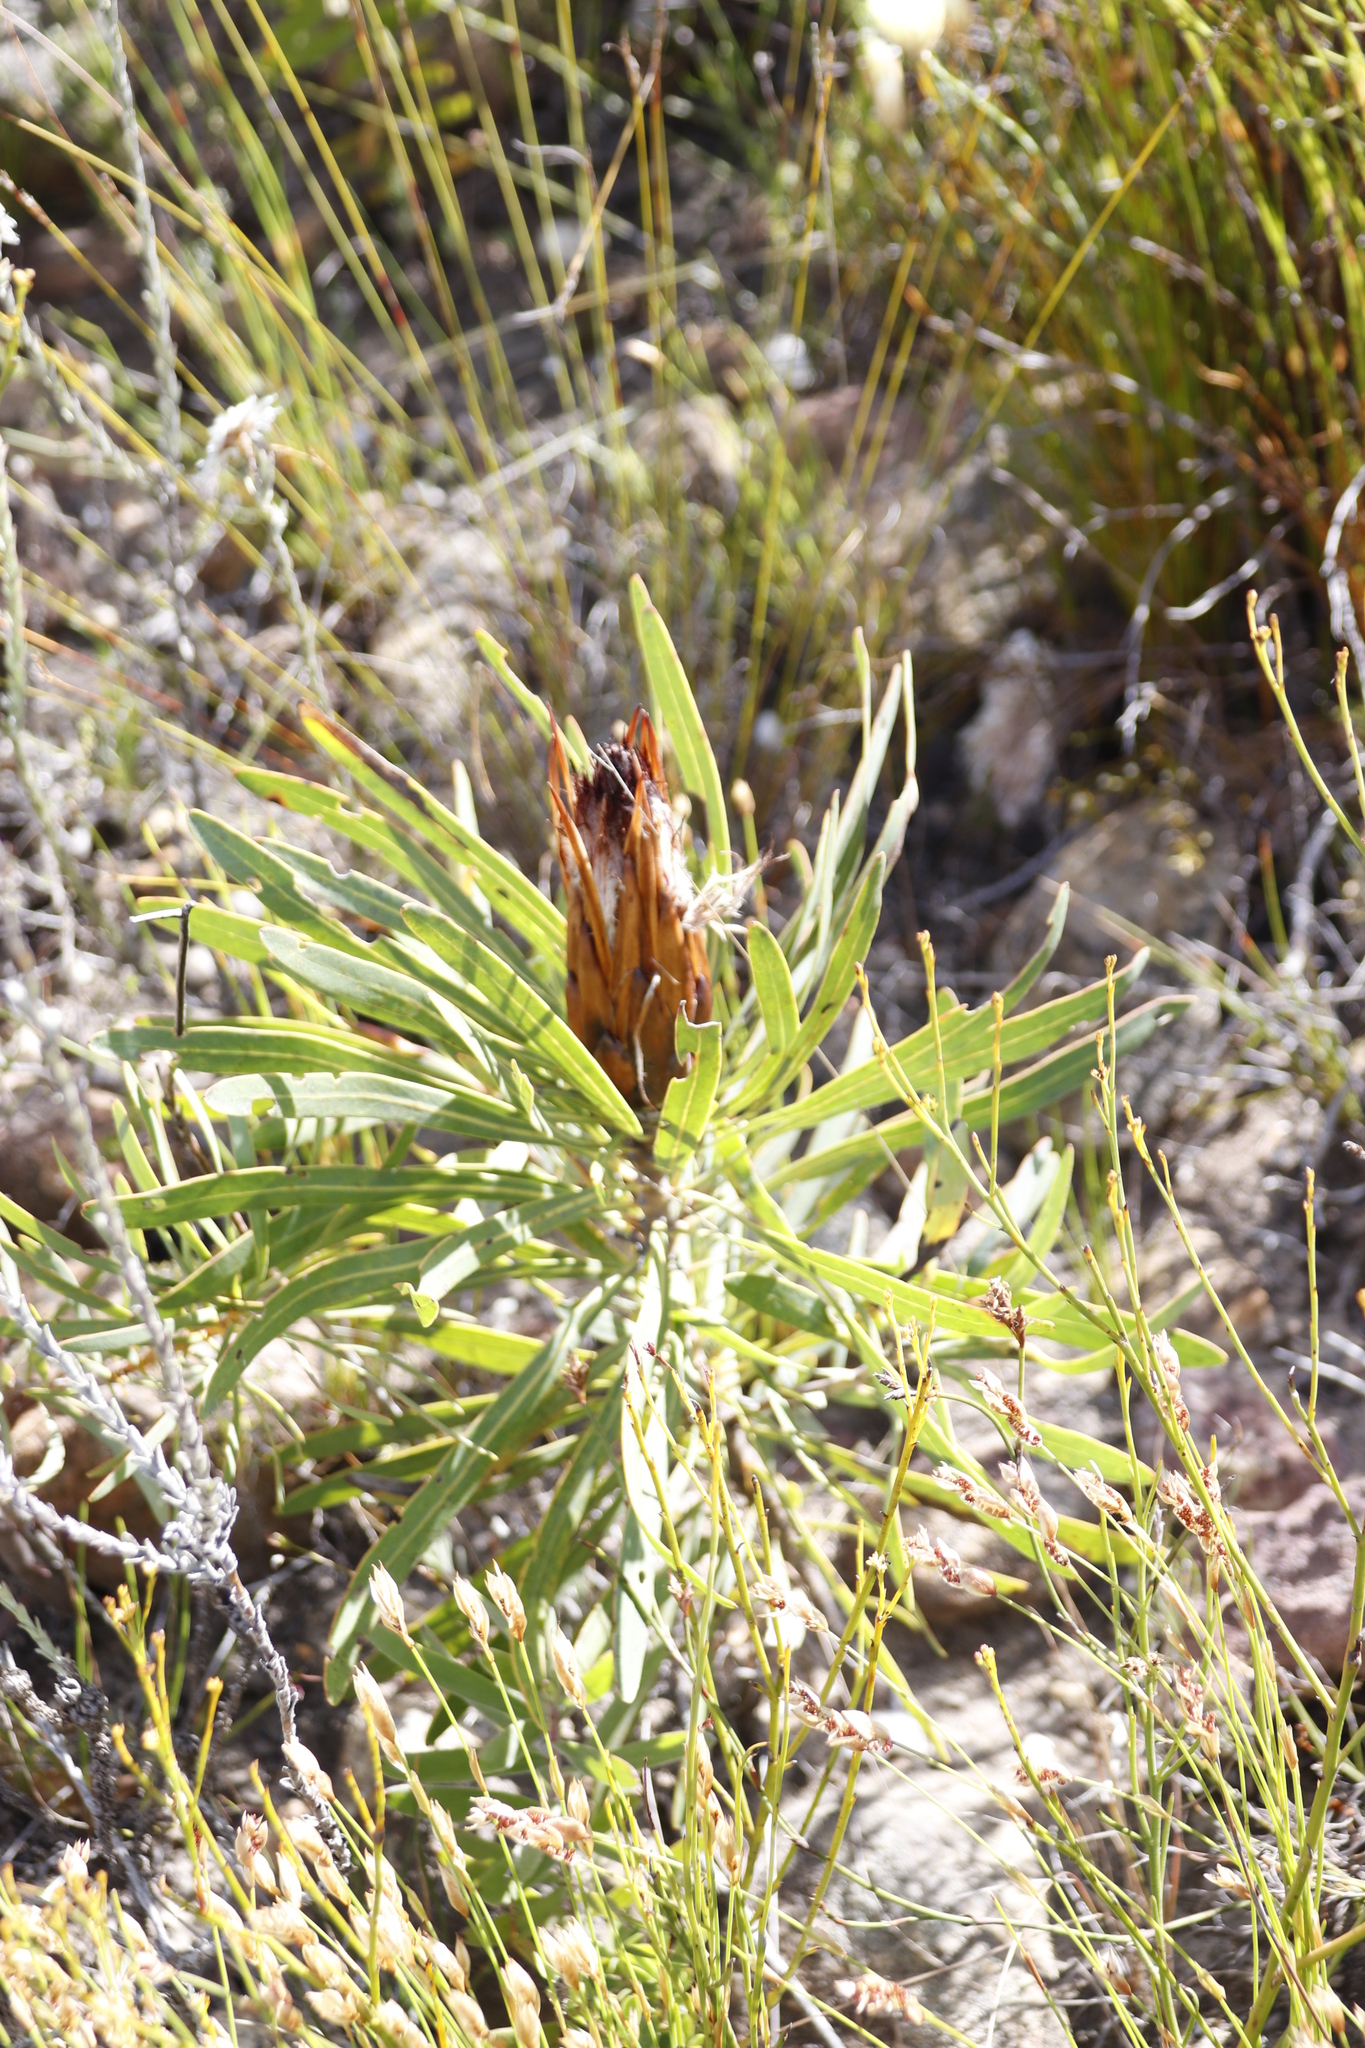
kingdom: Plantae
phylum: Tracheophyta
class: Magnoliopsida
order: Proteales
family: Proteaceae
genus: Protea
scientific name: Protea longifolia
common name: Long-leaf sugarbush
